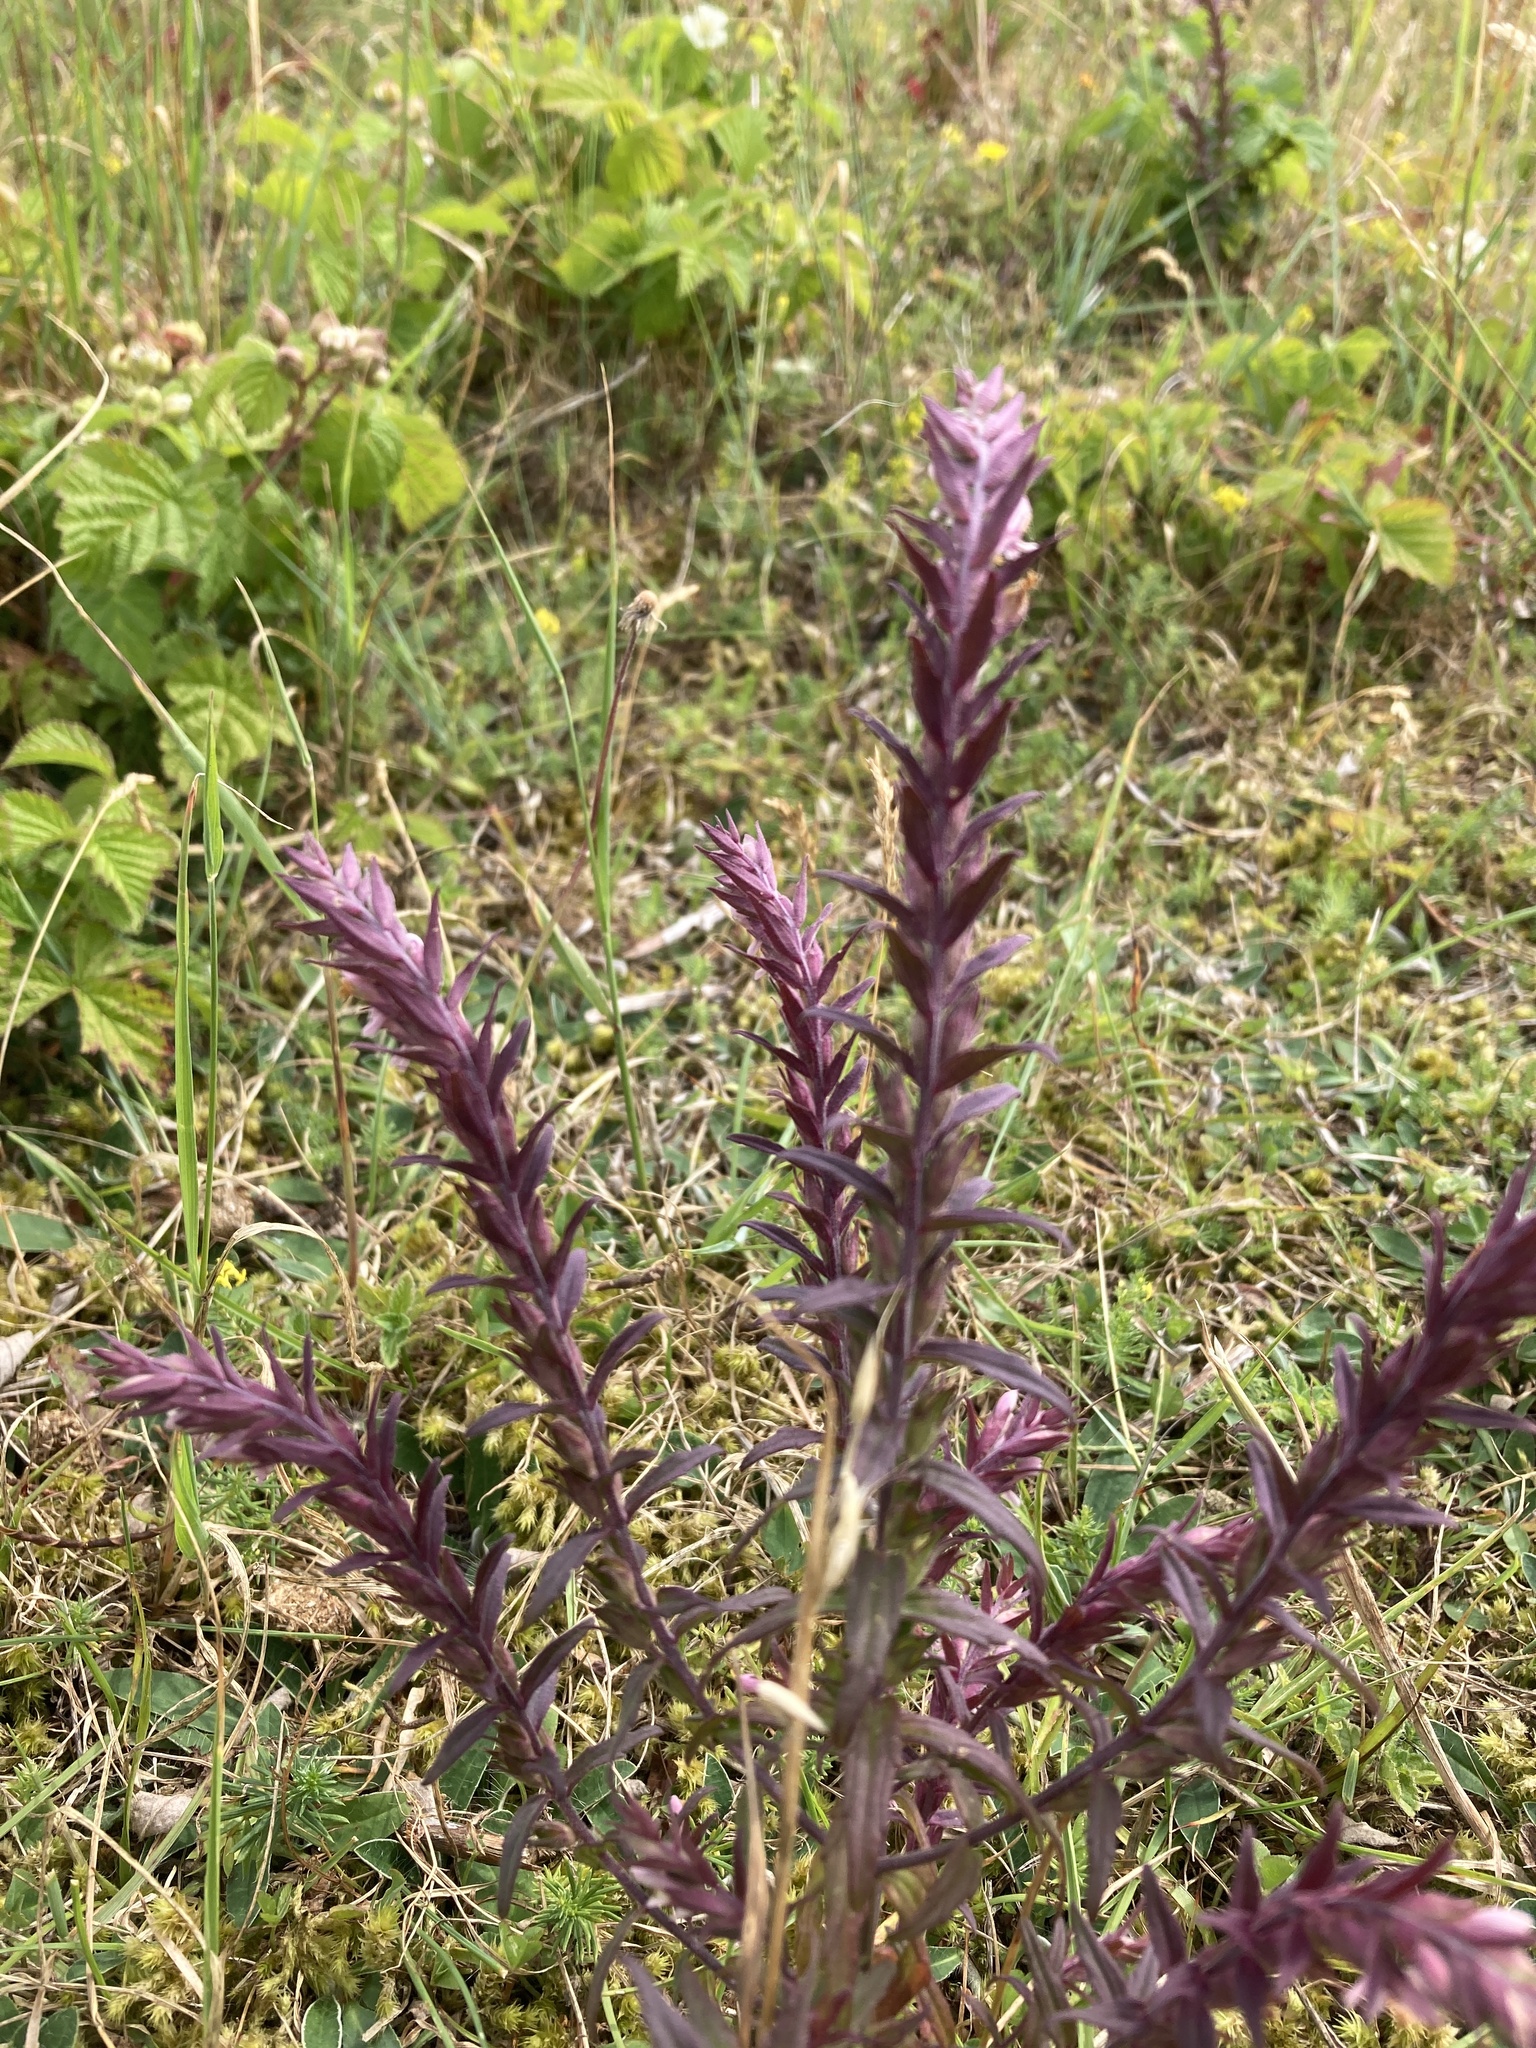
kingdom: Plantae
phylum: Tracheophyta
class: Magnoliopsida
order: Lamiales
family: Orobanchaceae
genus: Odontites
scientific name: Odontites vulgaris
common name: Broomrape
